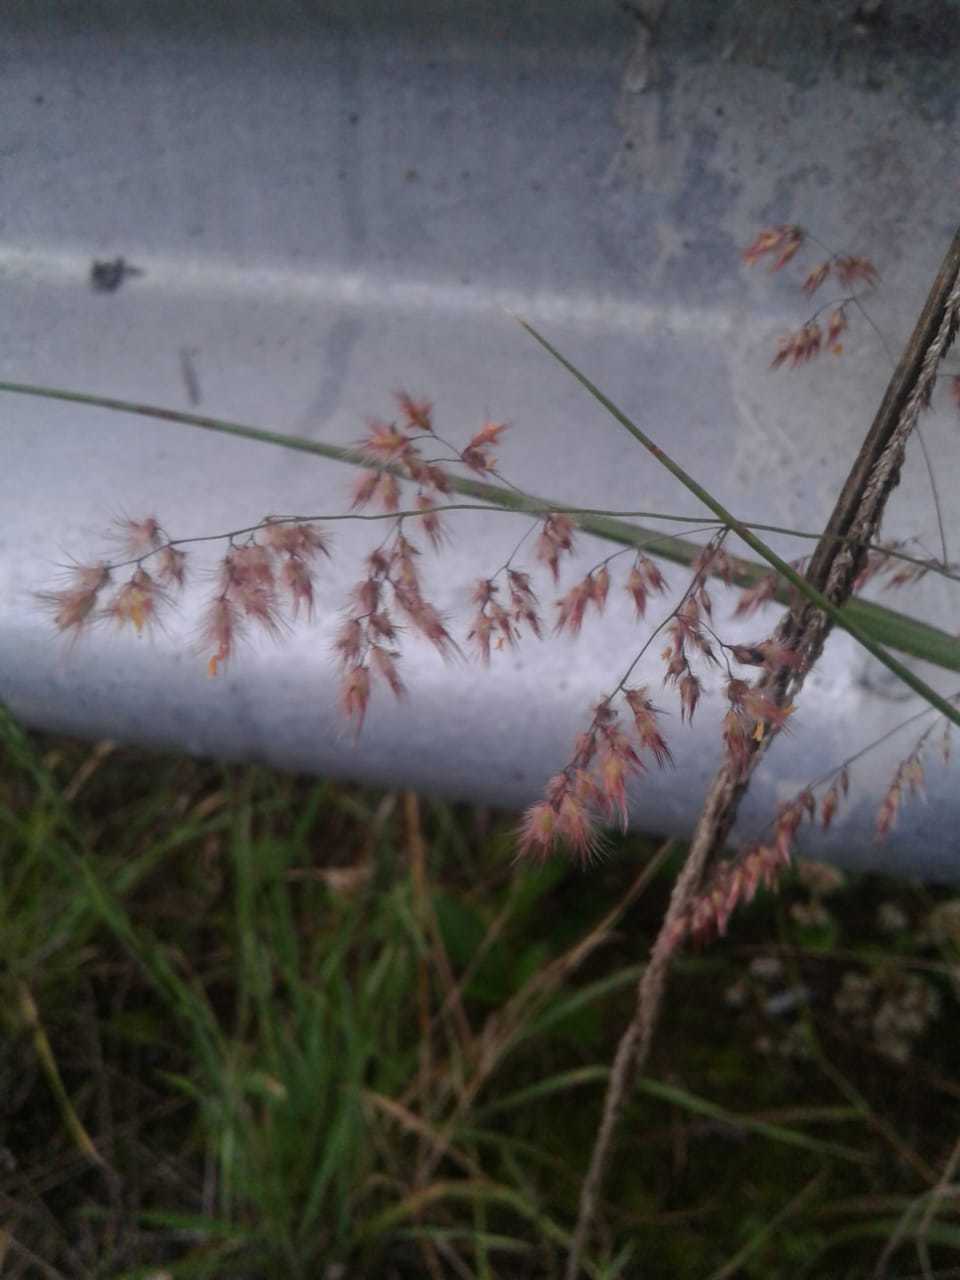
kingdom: Plantae
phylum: Tracheophyta
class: Liliopsida
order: Poales
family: Poaceae
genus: Melinis
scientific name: Melinis repens
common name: Rose natal grass
